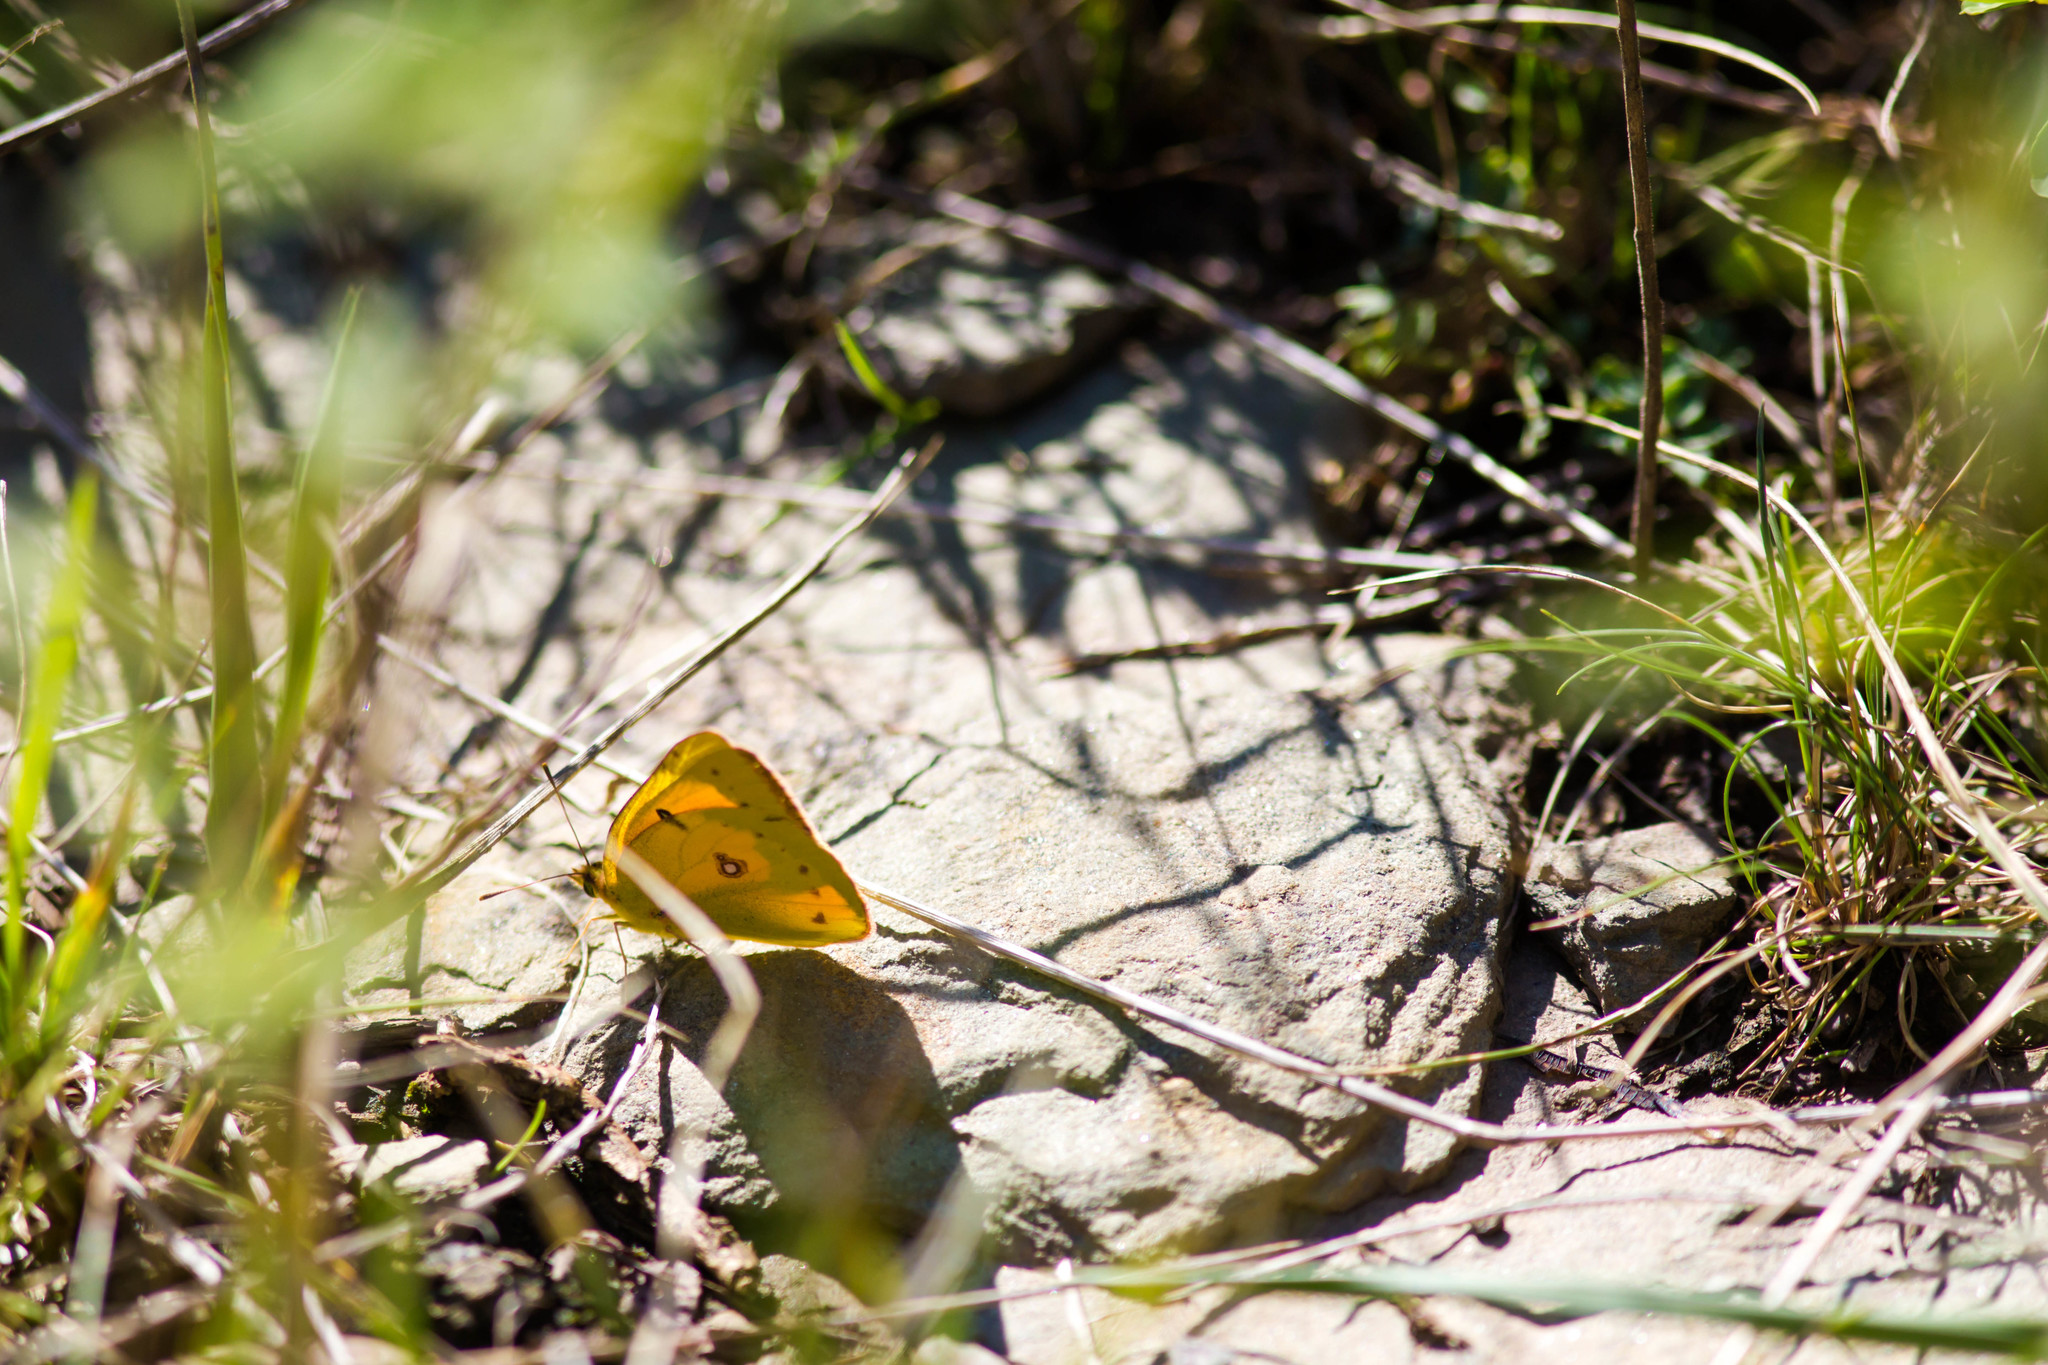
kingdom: Animalia
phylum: Arthropoda
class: Insecta
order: Lepidoptera
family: Pieridae
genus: Colias
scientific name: Colias eurytheme
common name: Alfalfa butterfly
